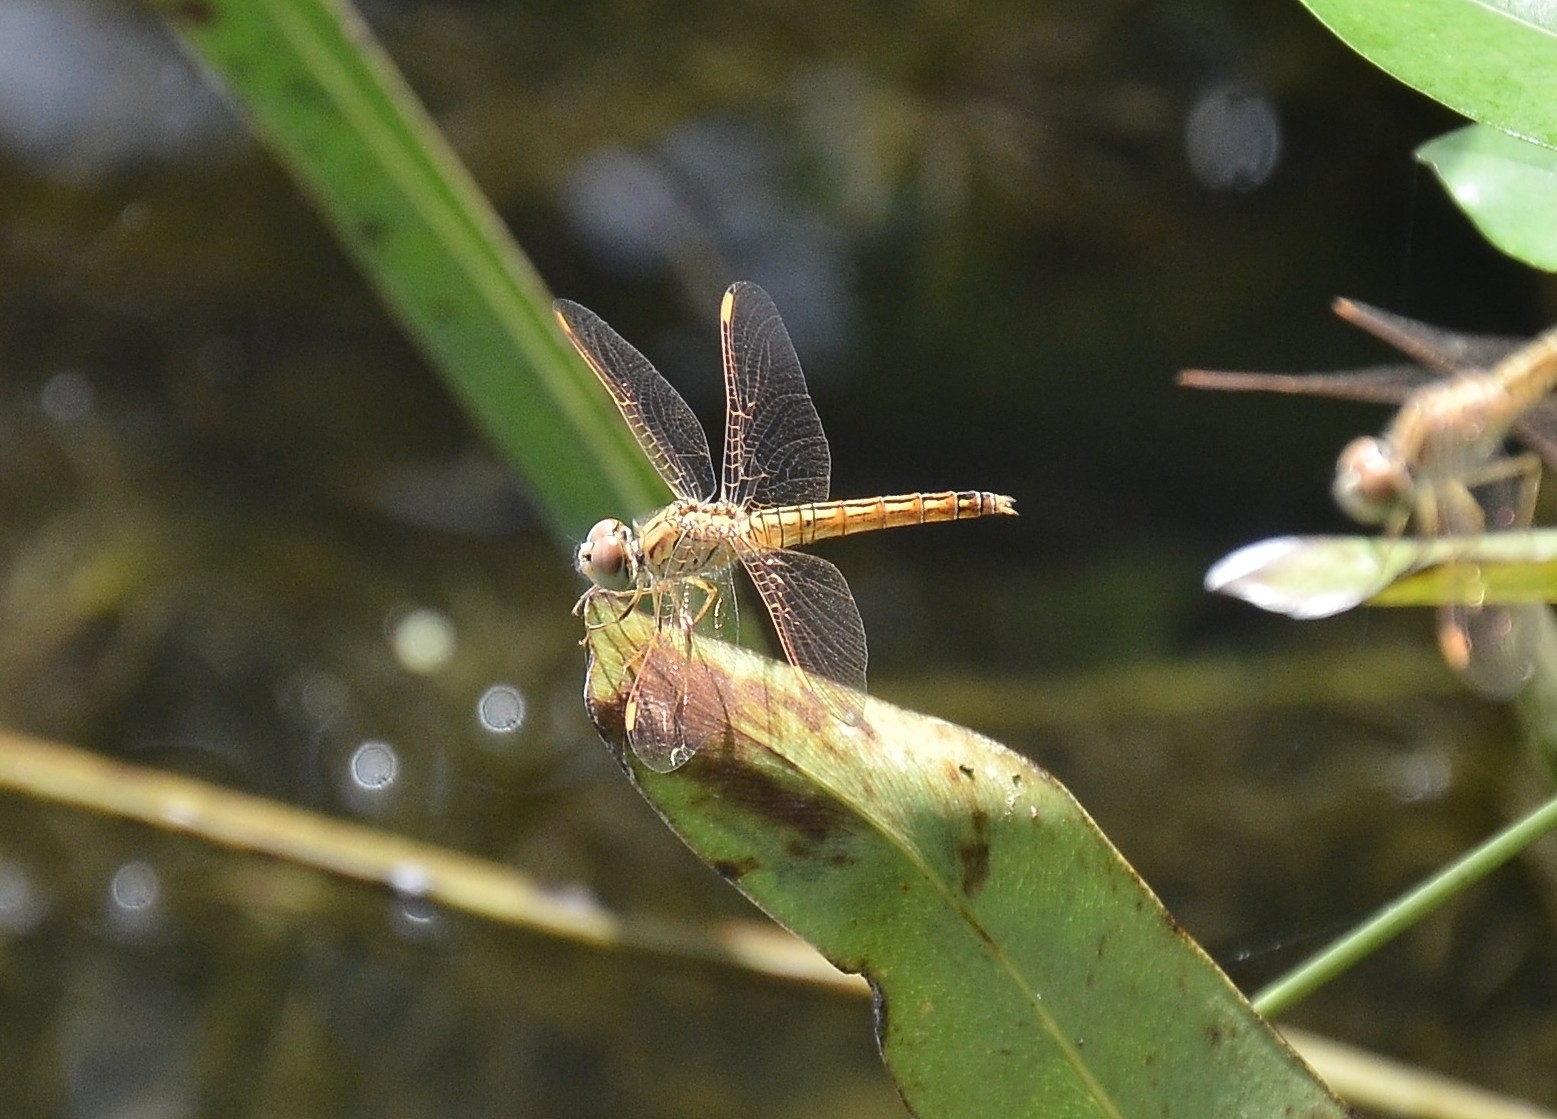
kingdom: Animalia
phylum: Arthropoda
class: Insecta
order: Odonata
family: Libellulidae
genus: Brachythemis
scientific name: Brachythemis contaminata
